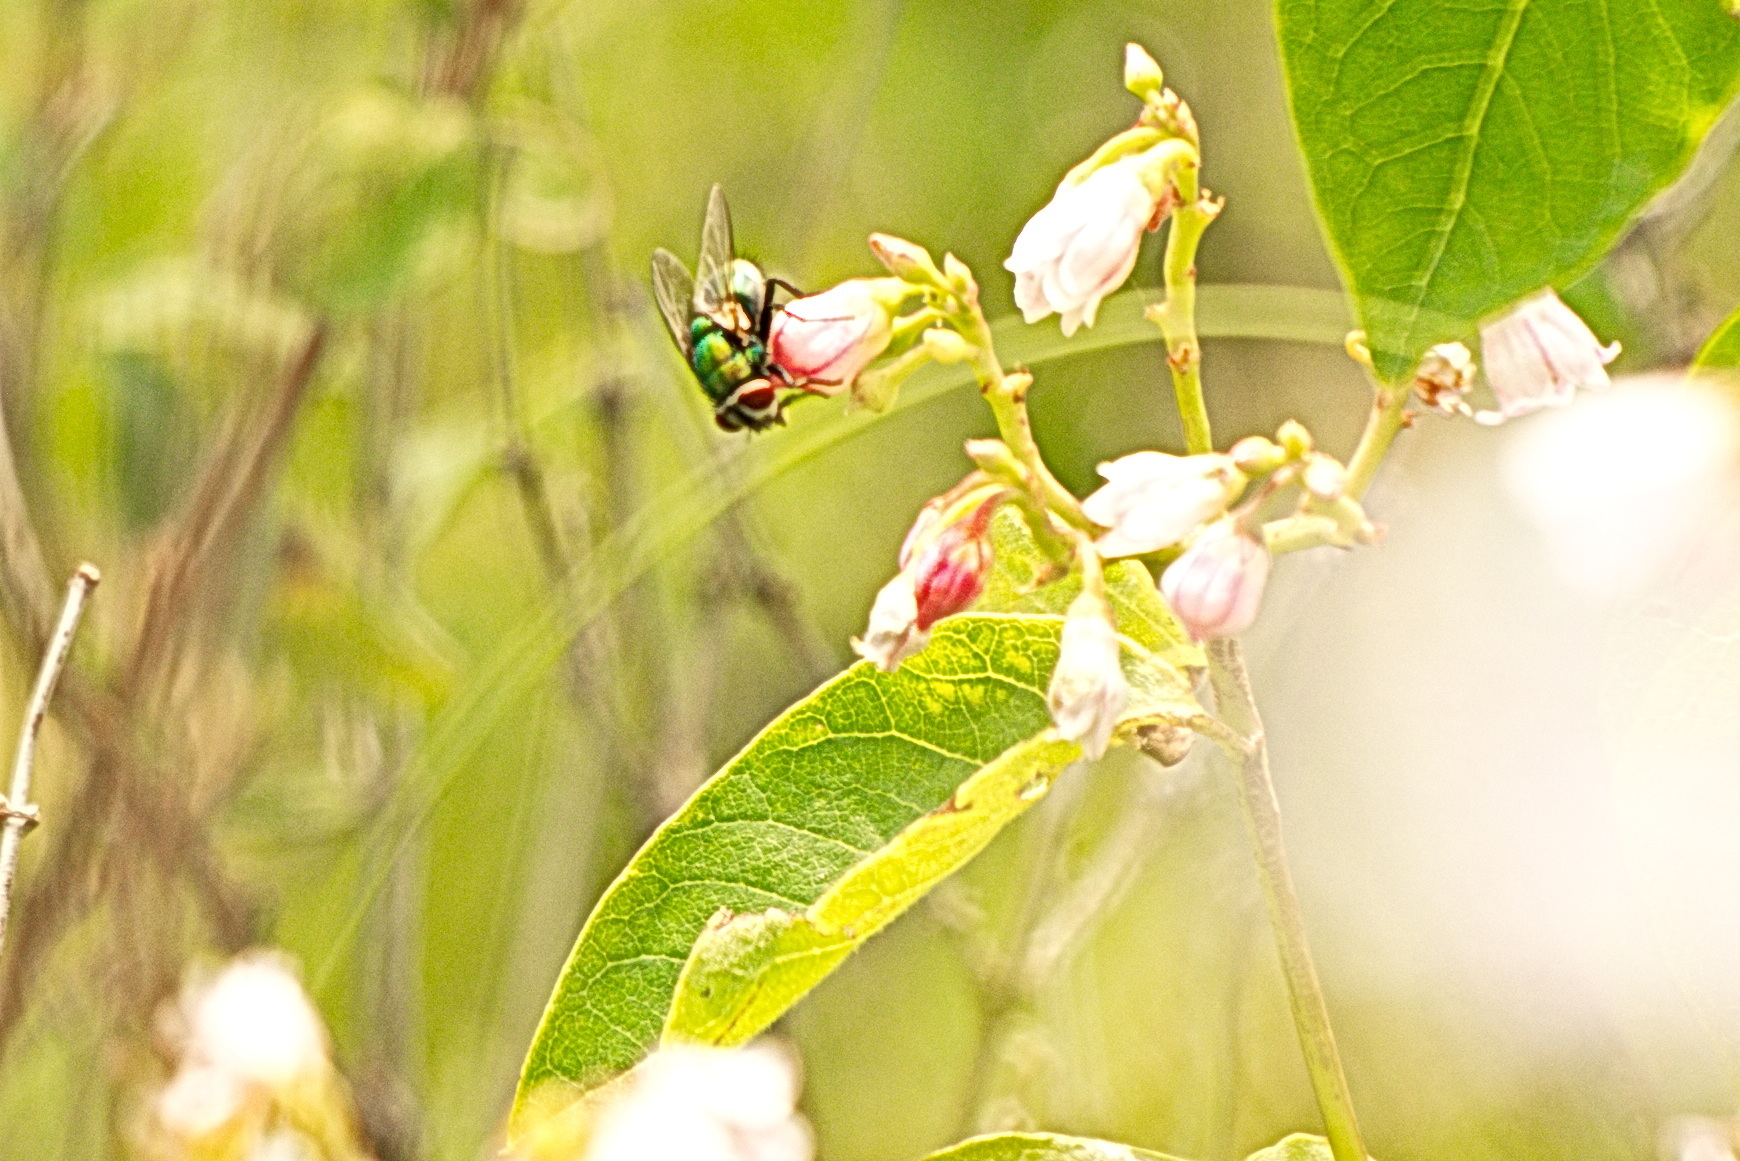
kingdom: Animalia
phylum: Arthropoda
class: Insecta
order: Diptera
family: Calliphoridae
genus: Lucilia
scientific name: Lucilia
